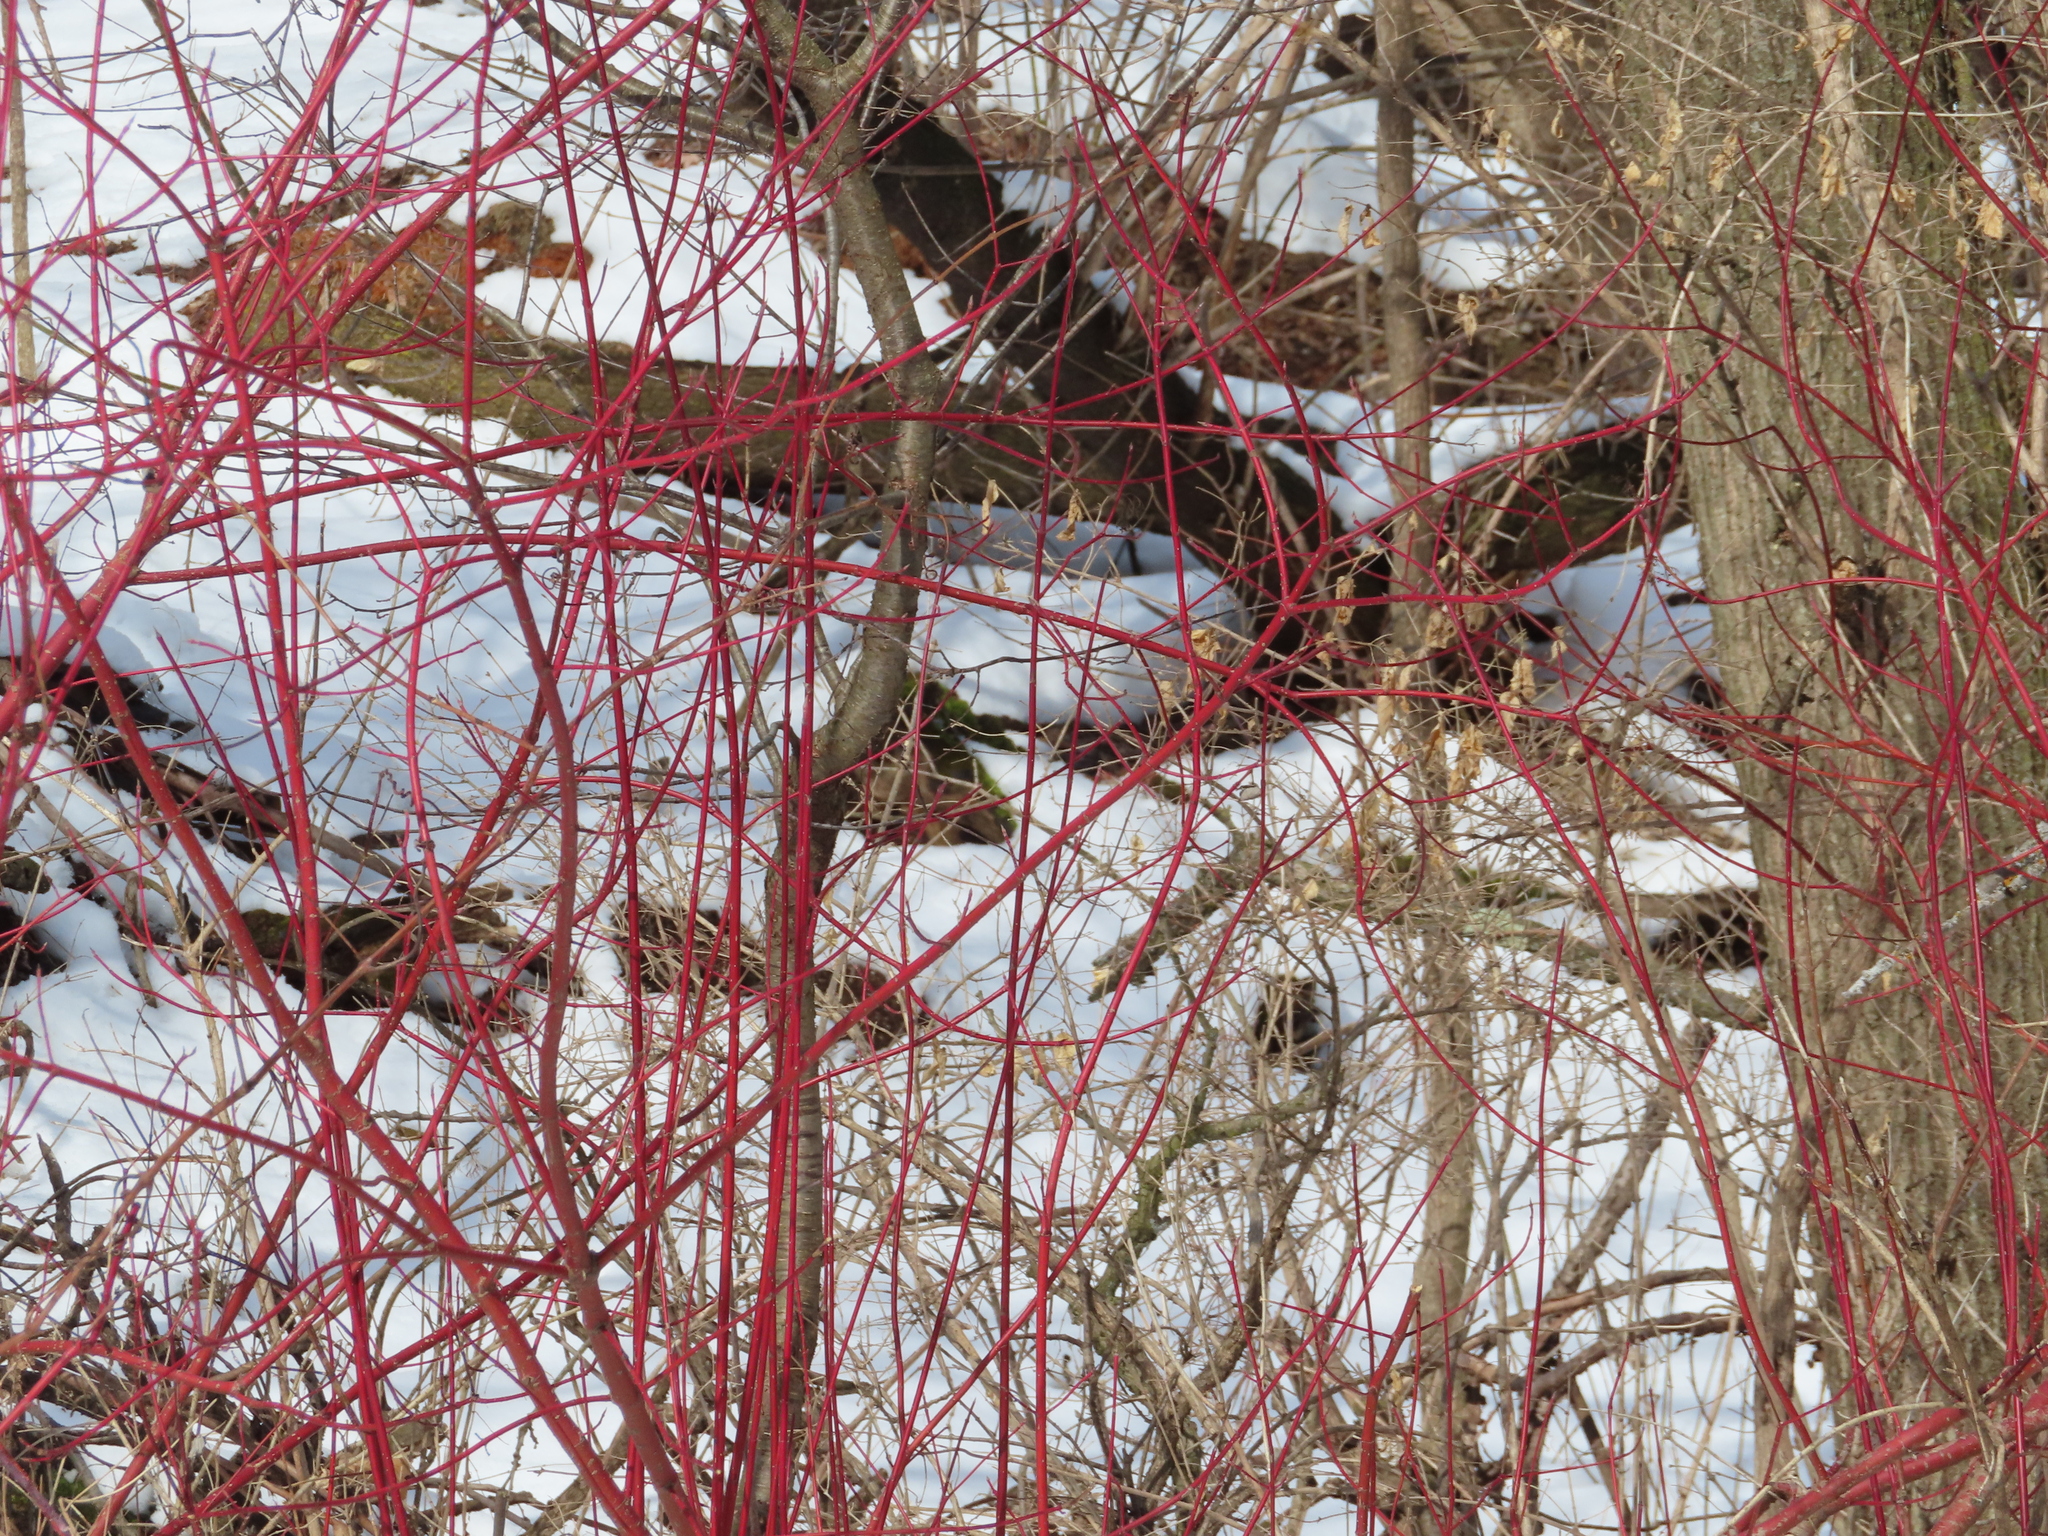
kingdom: Plantae
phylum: Tracheophyta
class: Magnoliopsida
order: Cornales
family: Cornaceae
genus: Cornus
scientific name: Cornus sericea
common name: Red-osier dogwood
